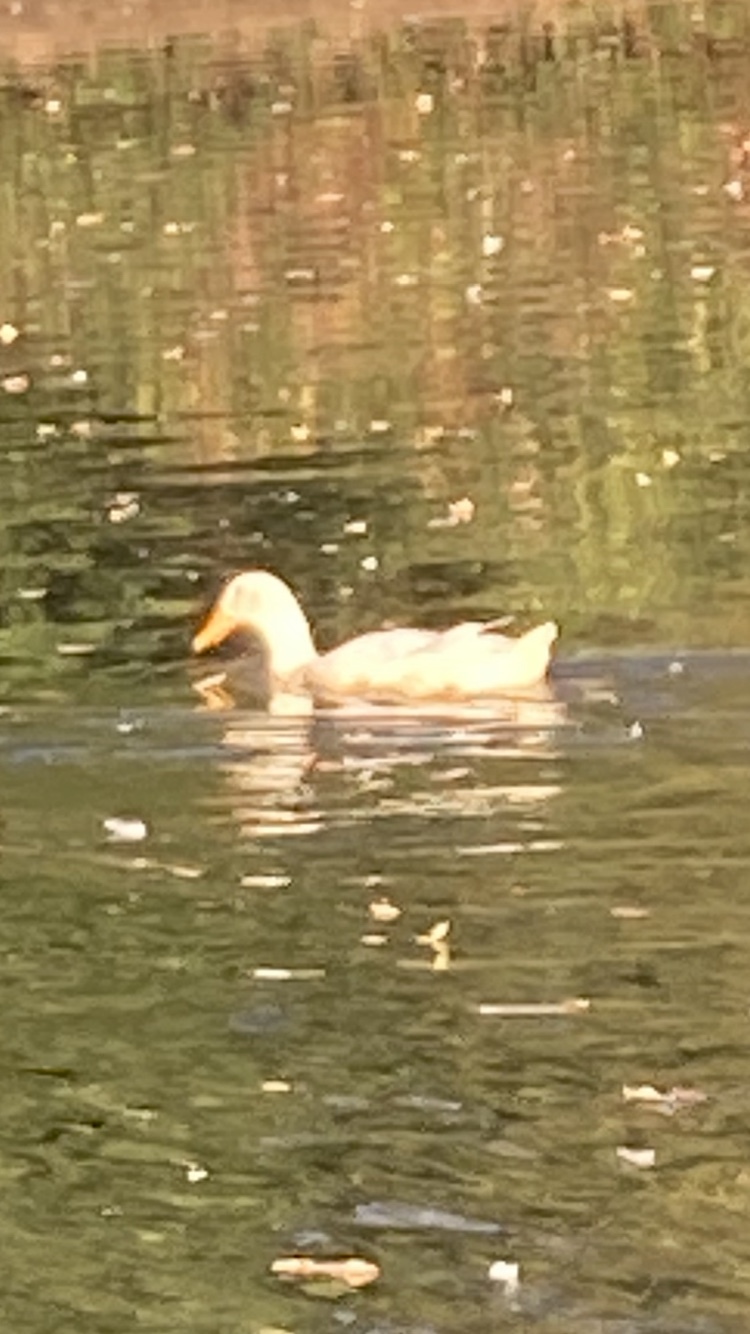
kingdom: Animalia
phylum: Chordata
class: Aves
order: Anseriformes
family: Anatidae
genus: Anas
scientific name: Anas platyrhynchos
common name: Mallard
